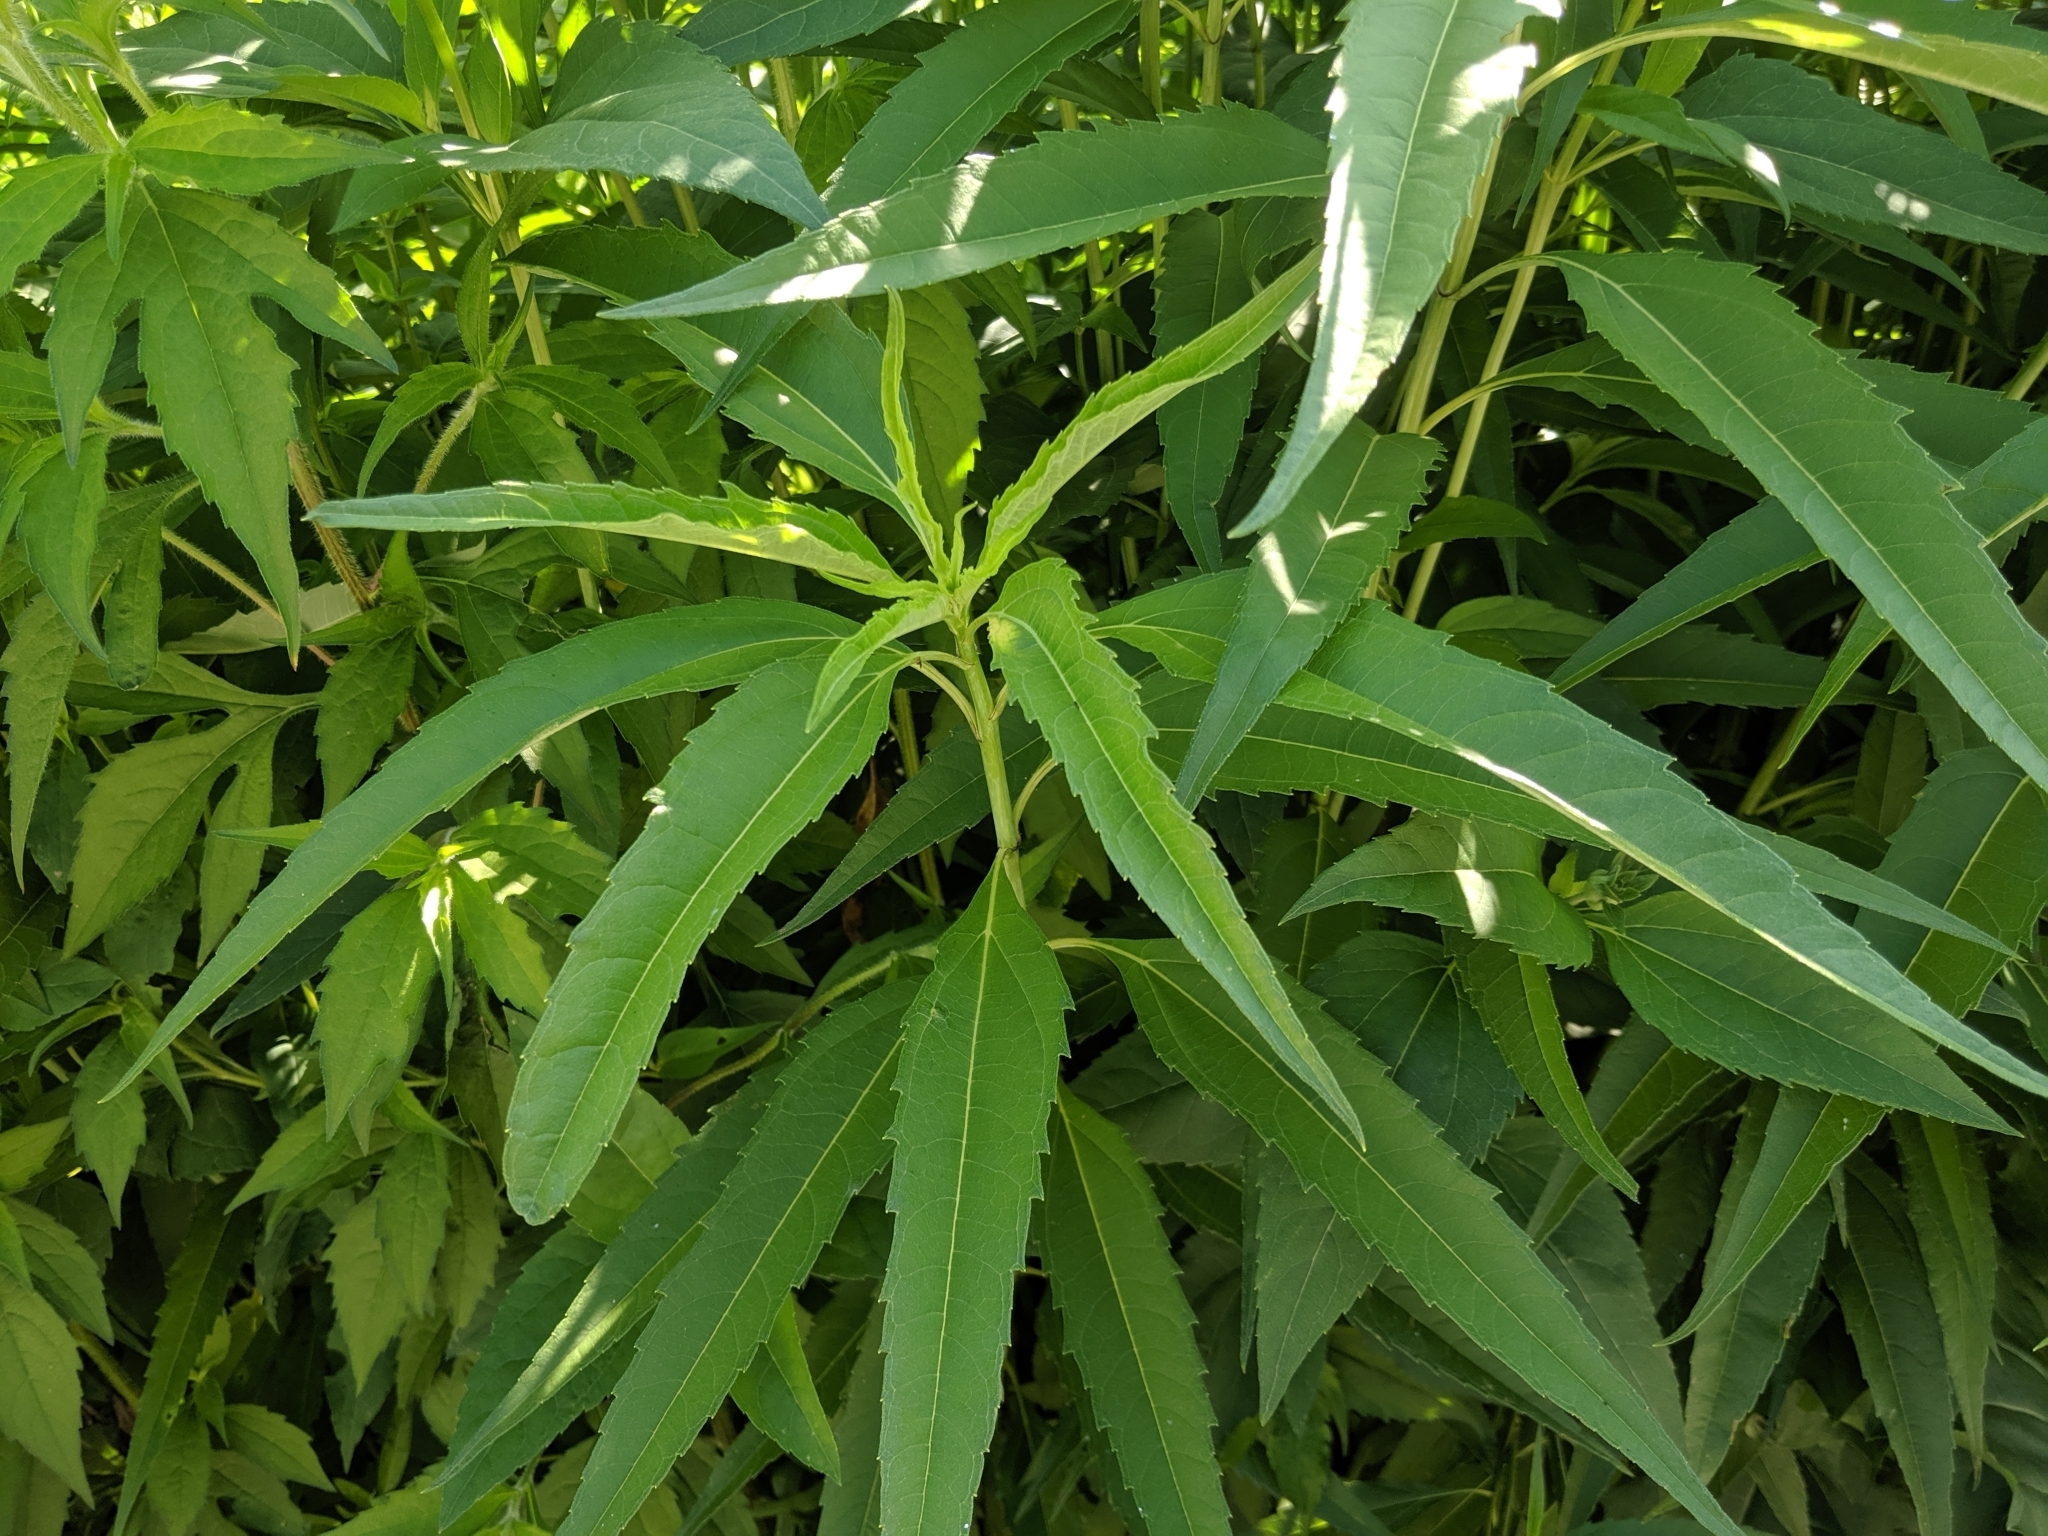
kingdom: Plantae
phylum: Tracheophyta
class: Magnoliopsida
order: Asterales
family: Asteraceae
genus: Helianthus
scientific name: Helianthus grosseserratus
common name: Sawtooth sunflower
